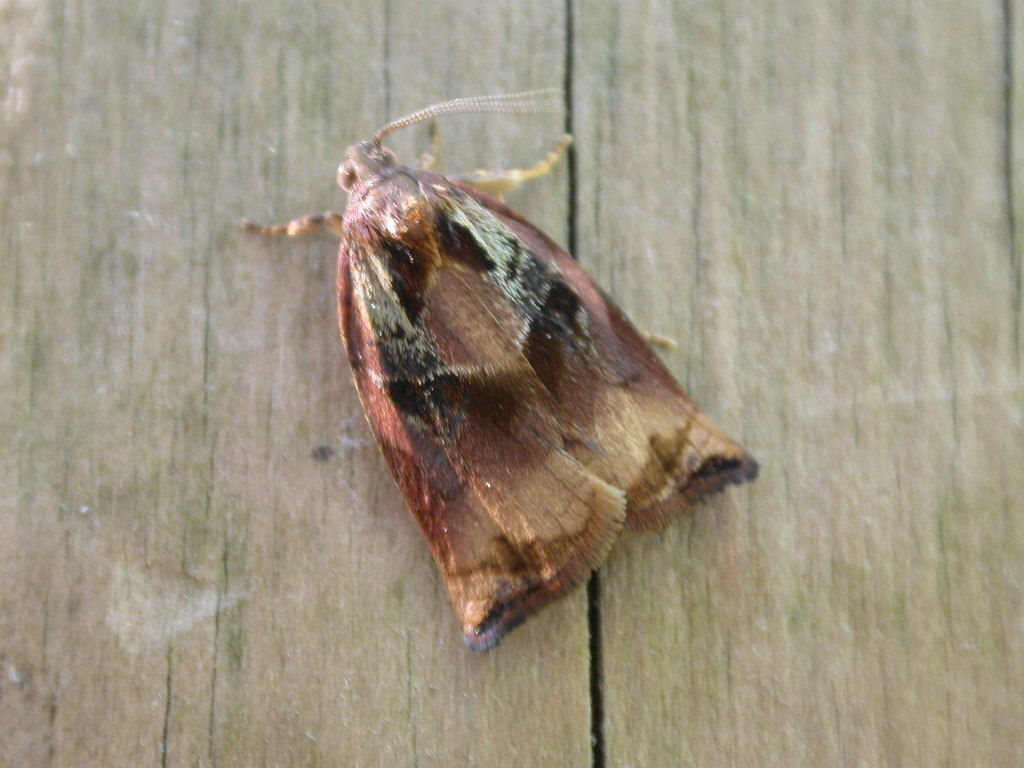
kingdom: Animalia
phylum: Arthropoda
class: Insecta
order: Lepidoptera
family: Tortricidae
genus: Archips
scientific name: Archips podana
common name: Large fruit-tree tortrix
